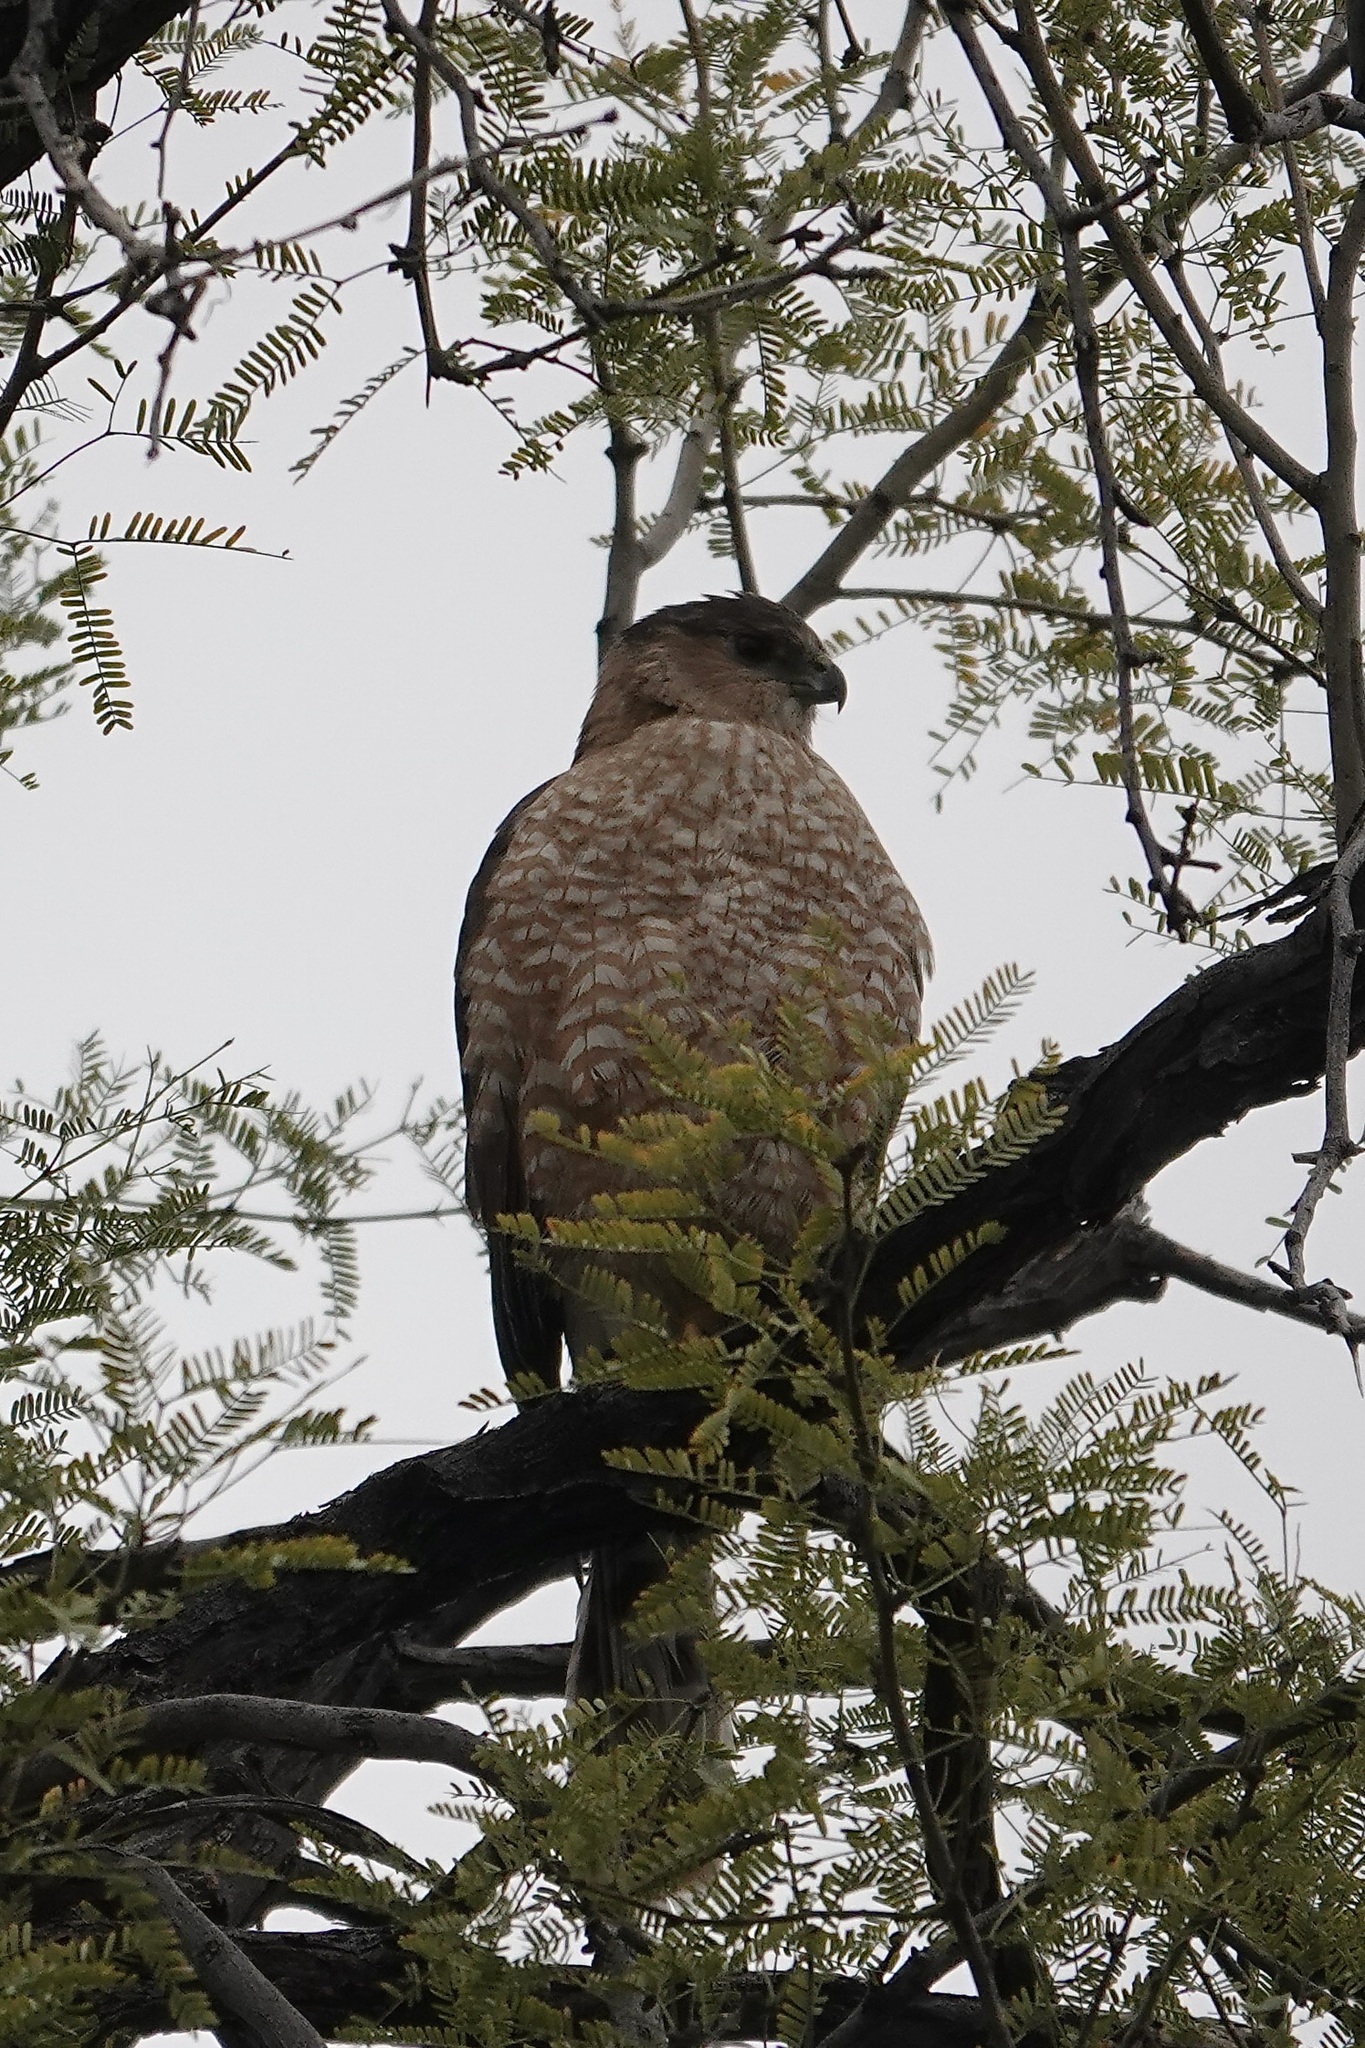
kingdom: Animalia
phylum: Chordata
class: Aves
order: Accipitriformes
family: Accipitridae
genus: Accipiter
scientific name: Accipiter cooperii
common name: Cooper's hawk
